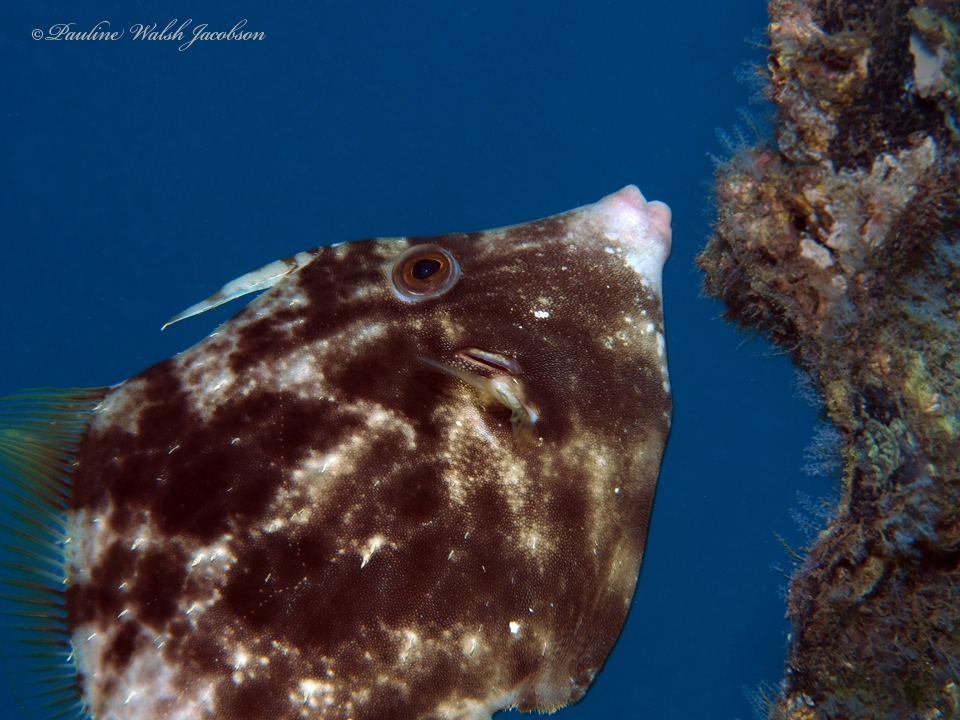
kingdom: Animalia
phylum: Chordata
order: Tetraodontiformes
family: Monacanthidae
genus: Stephanolepis
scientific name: Stephanolepis hispidus
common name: Planehead filefish
